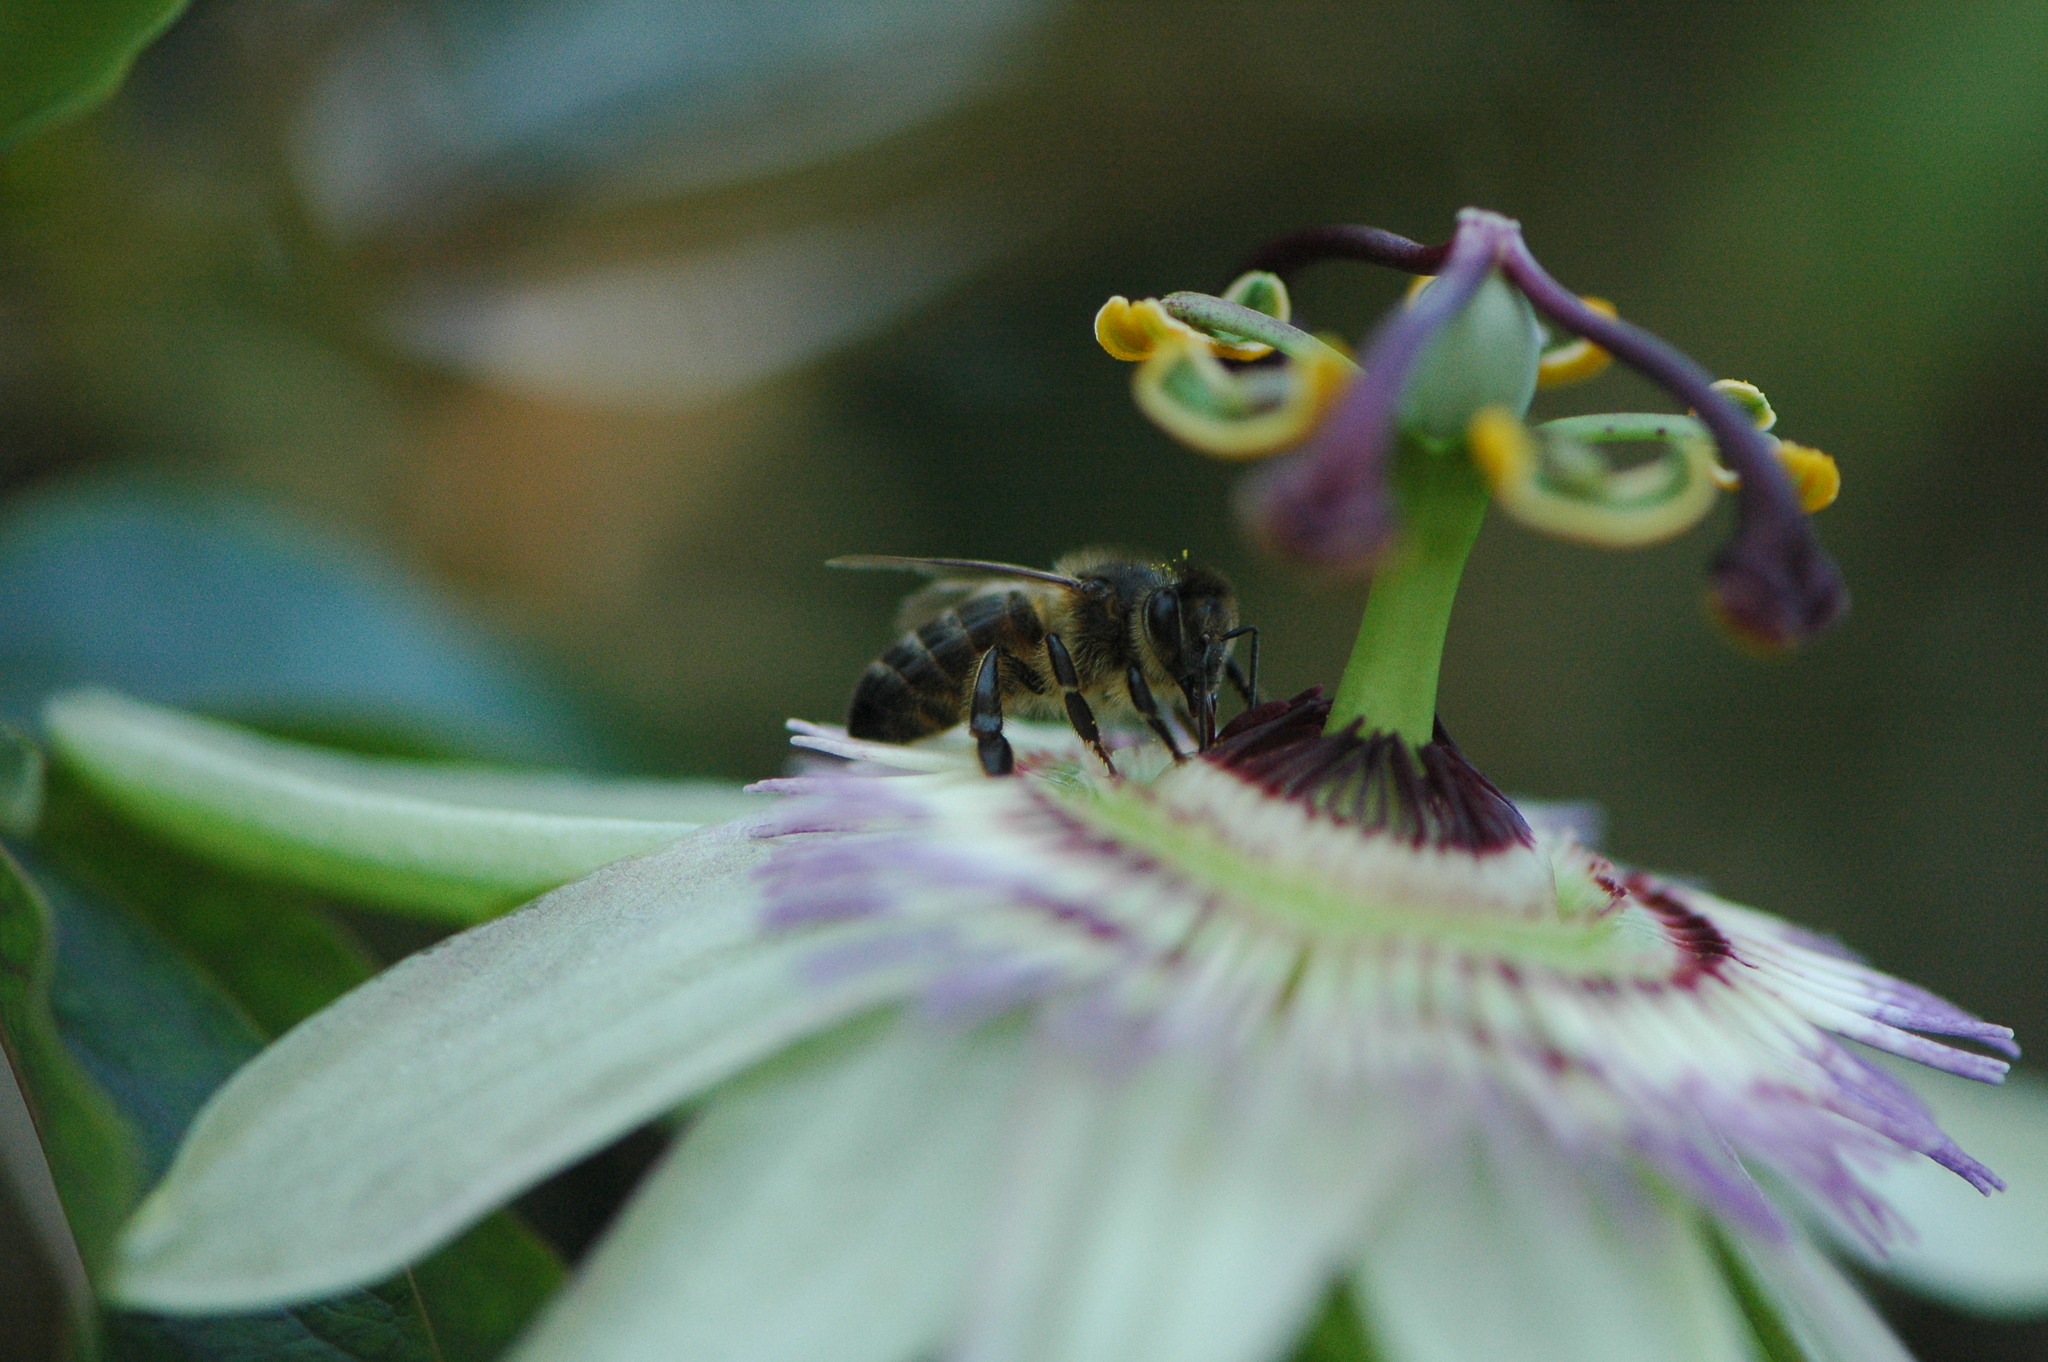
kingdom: Animalia
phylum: Arthropoda
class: Insecta
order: Hymenoptera
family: Apidae
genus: Apis
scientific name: Apis mellifera
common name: Honey bee
